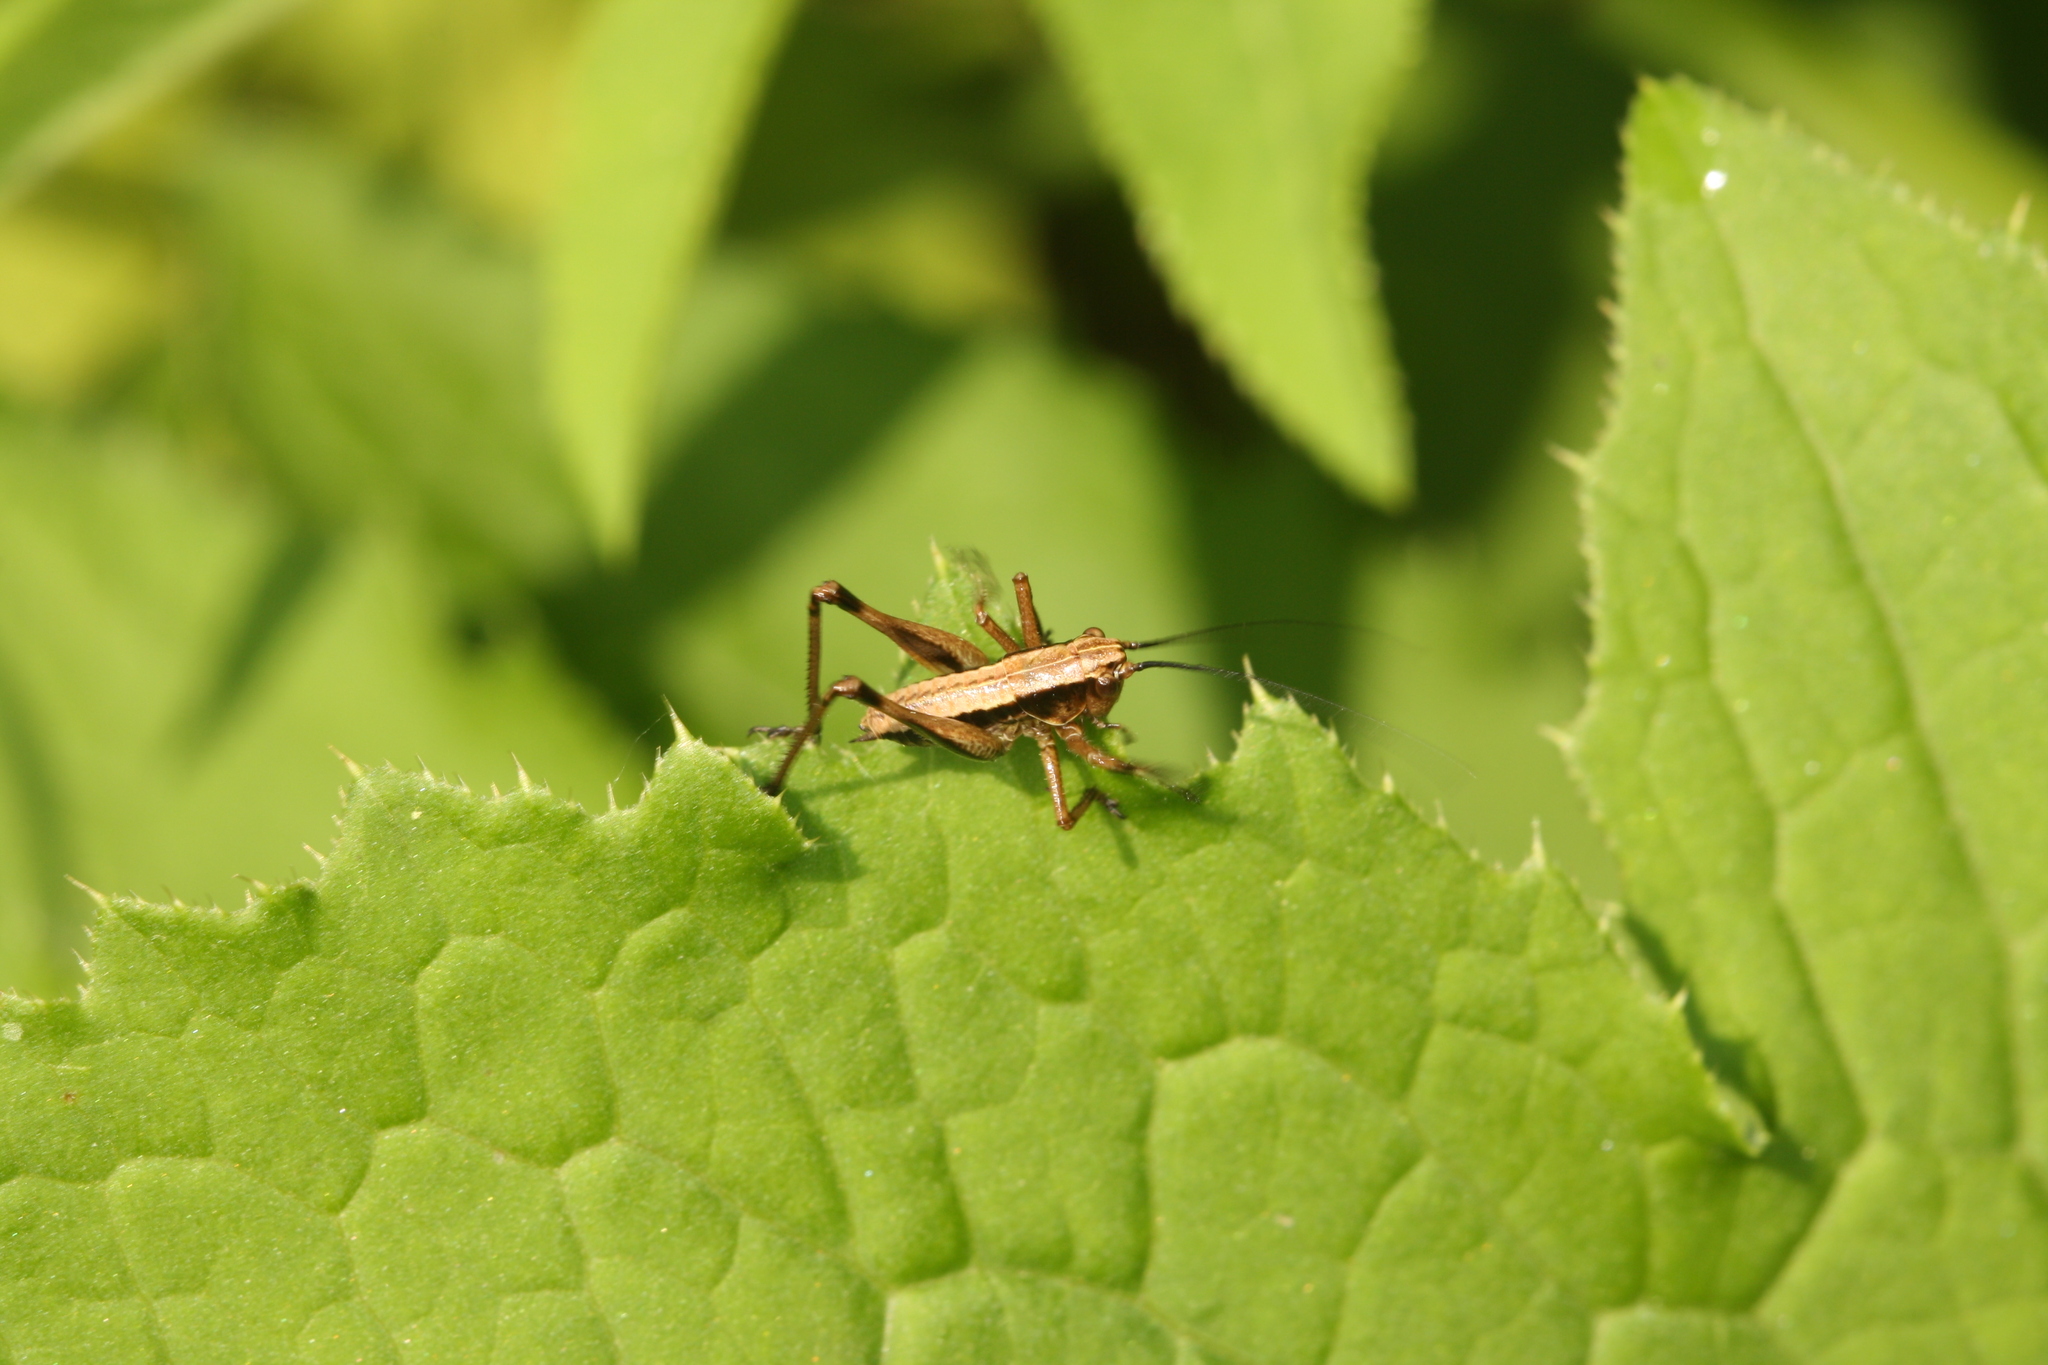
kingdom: Animalia
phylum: Arthropoda
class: Insecta
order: Orthoptera
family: Tettigoniidae
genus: Pholidoptera
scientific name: Pholidoptera griseoaptera
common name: Dark bush-cricket
